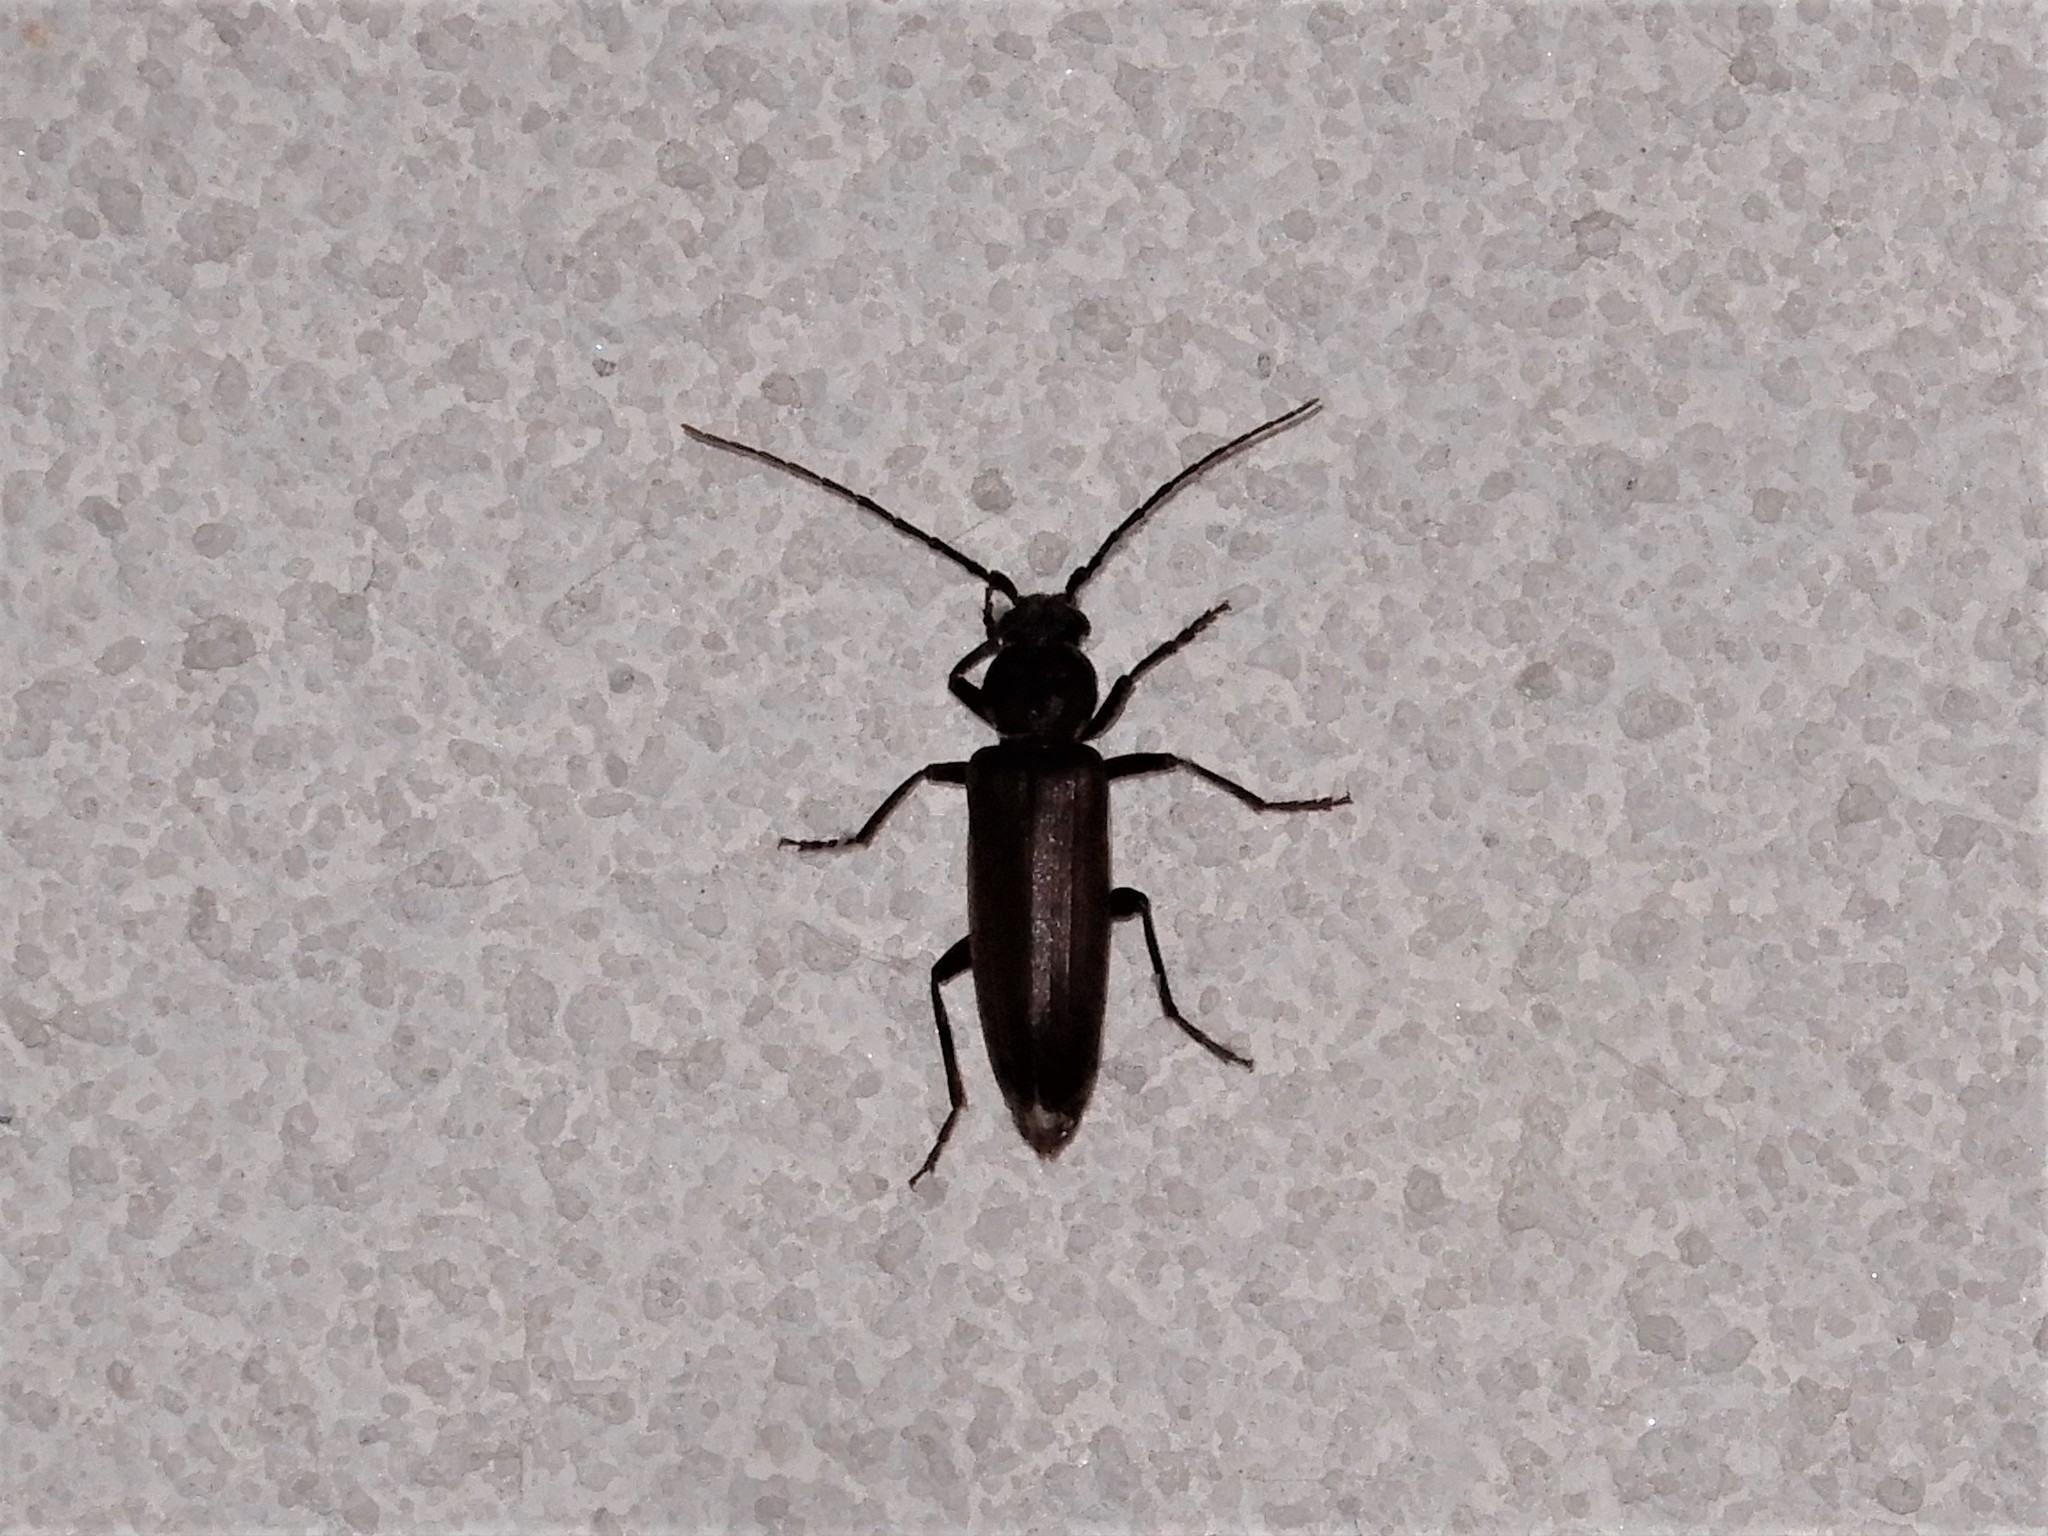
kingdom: Animalia
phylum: Arthropoda
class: Insecta
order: Coleoptera
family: Cerambycidae
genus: Arhopalus
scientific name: Arhopalus ferus
